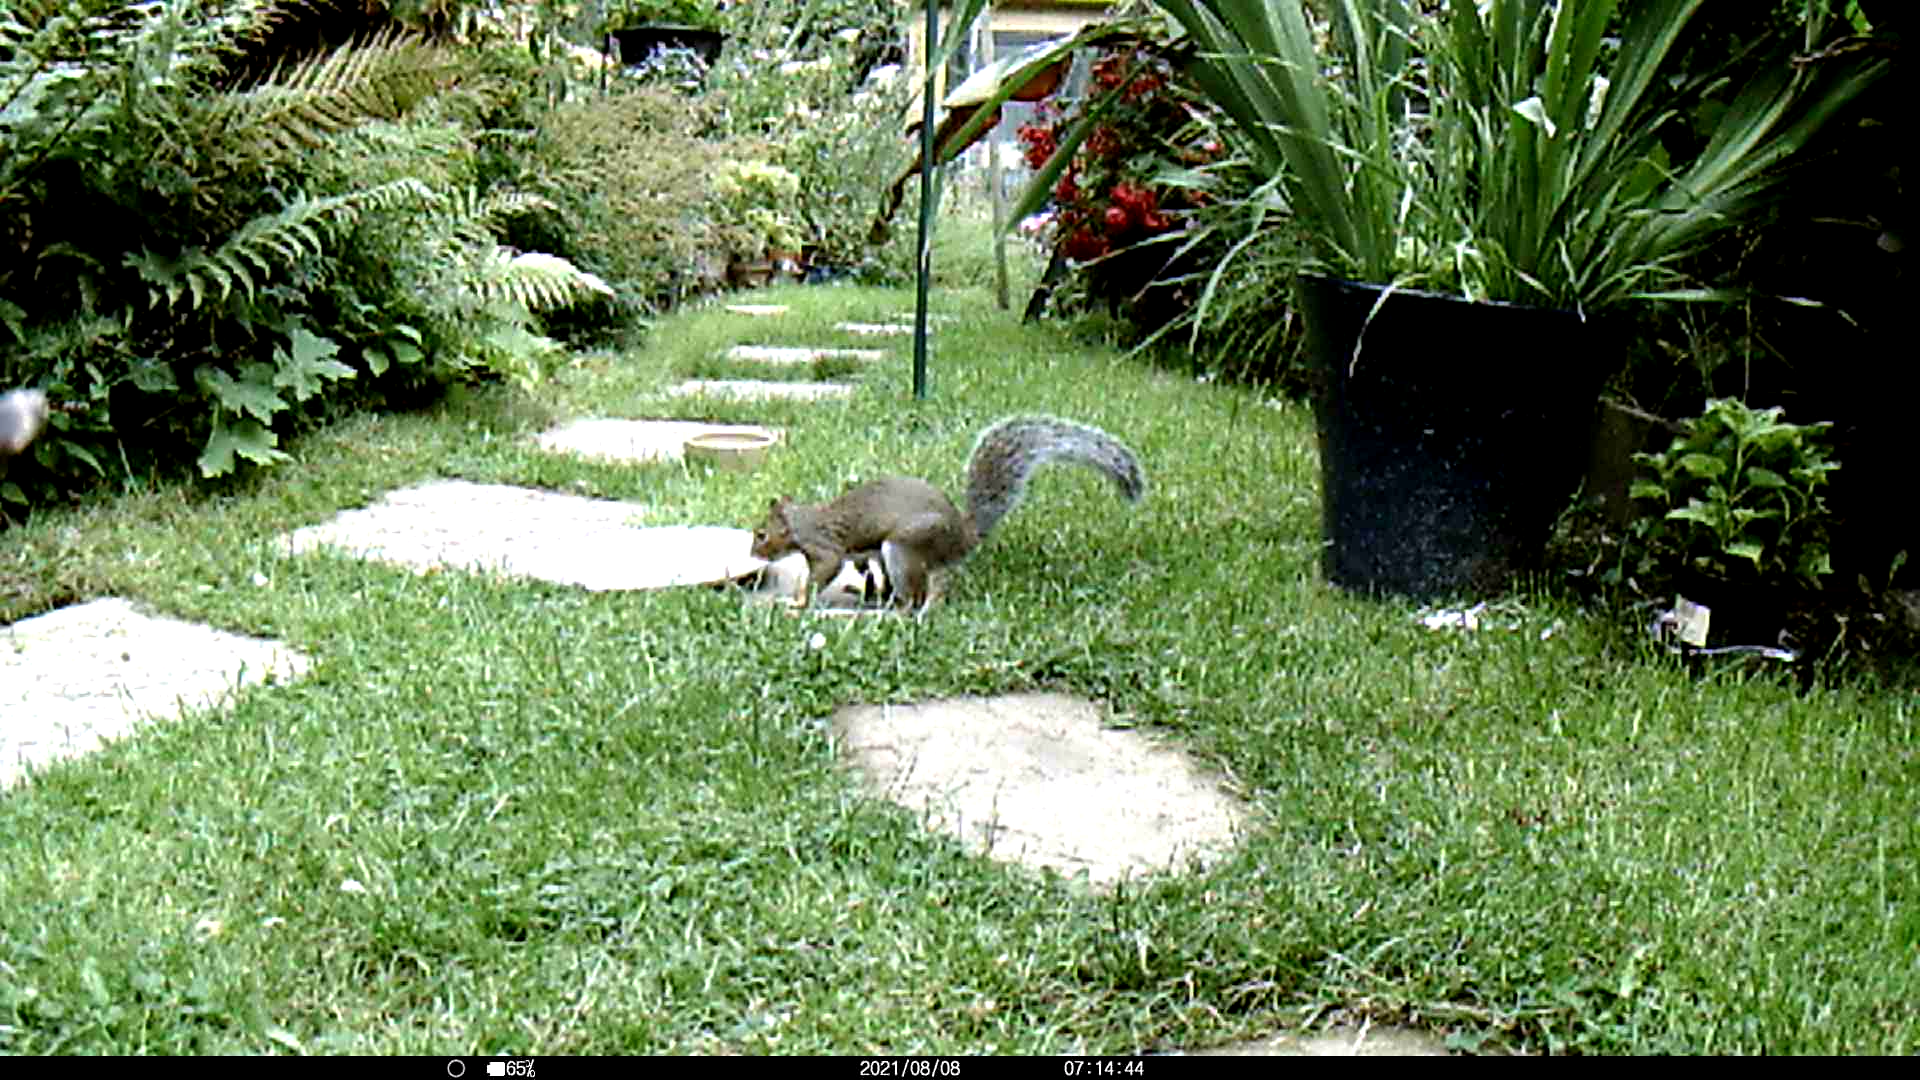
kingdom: Animalia
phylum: Chordata
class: Mammalia
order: Rodentia
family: Sciuridae
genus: Sciurus
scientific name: Sciurus carolinensis
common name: Eastern gray squirrel
